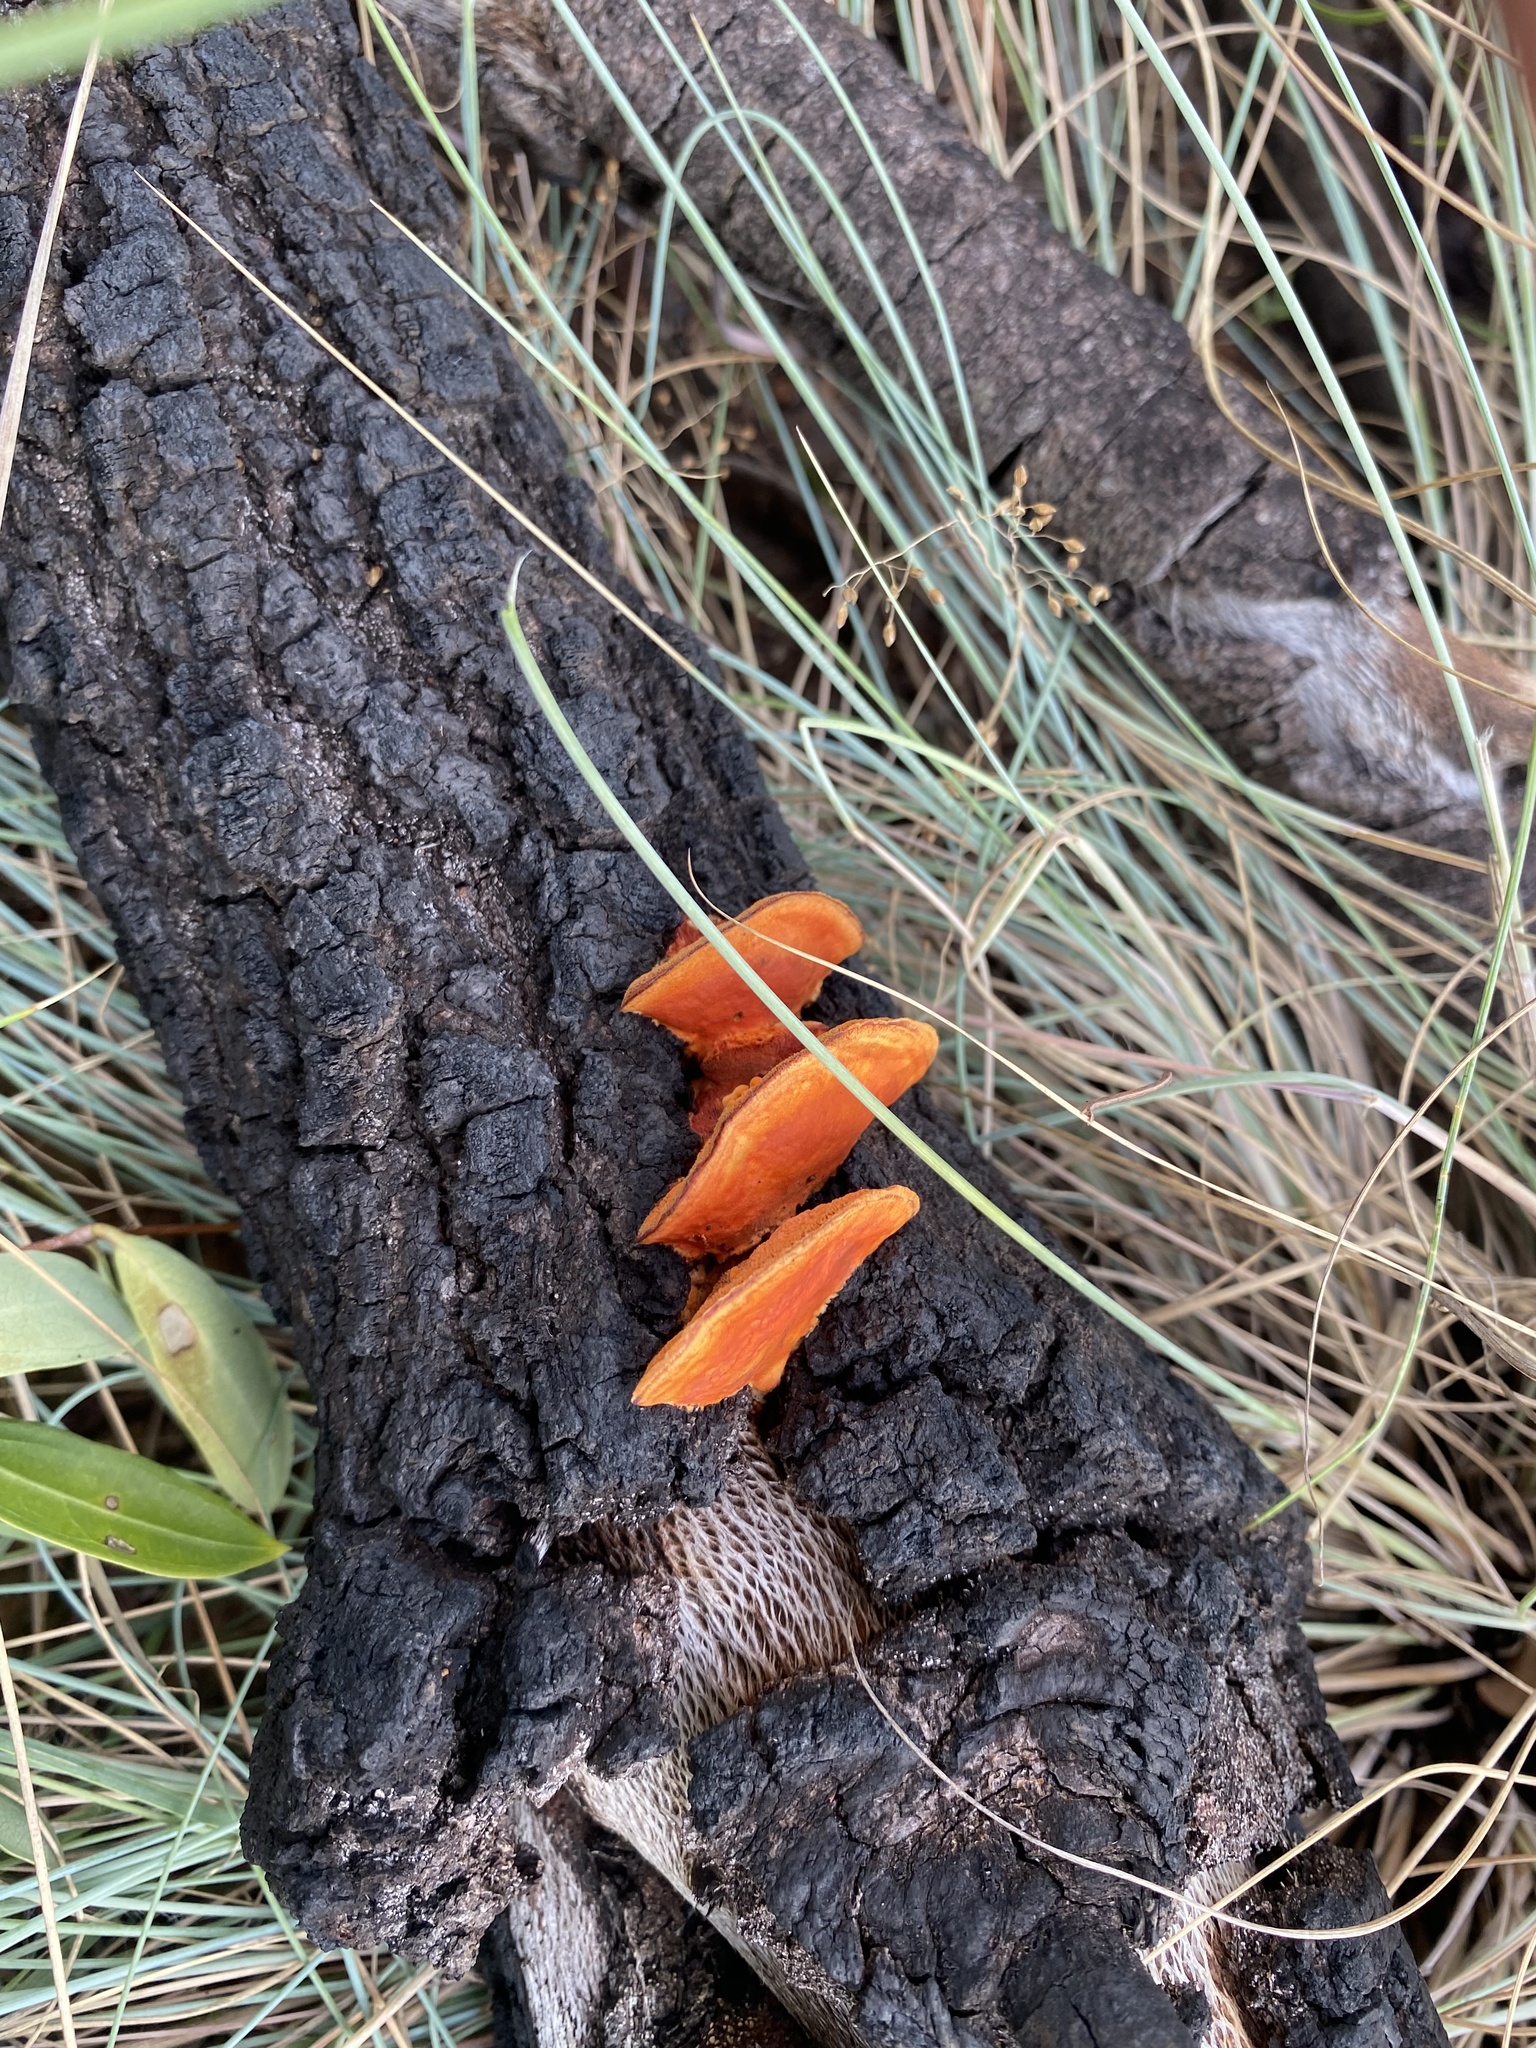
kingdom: Fungi
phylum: Basidiomycota
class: Agaricomycetes
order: Polyporales
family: Polyporaceae
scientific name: Polyporaceae
